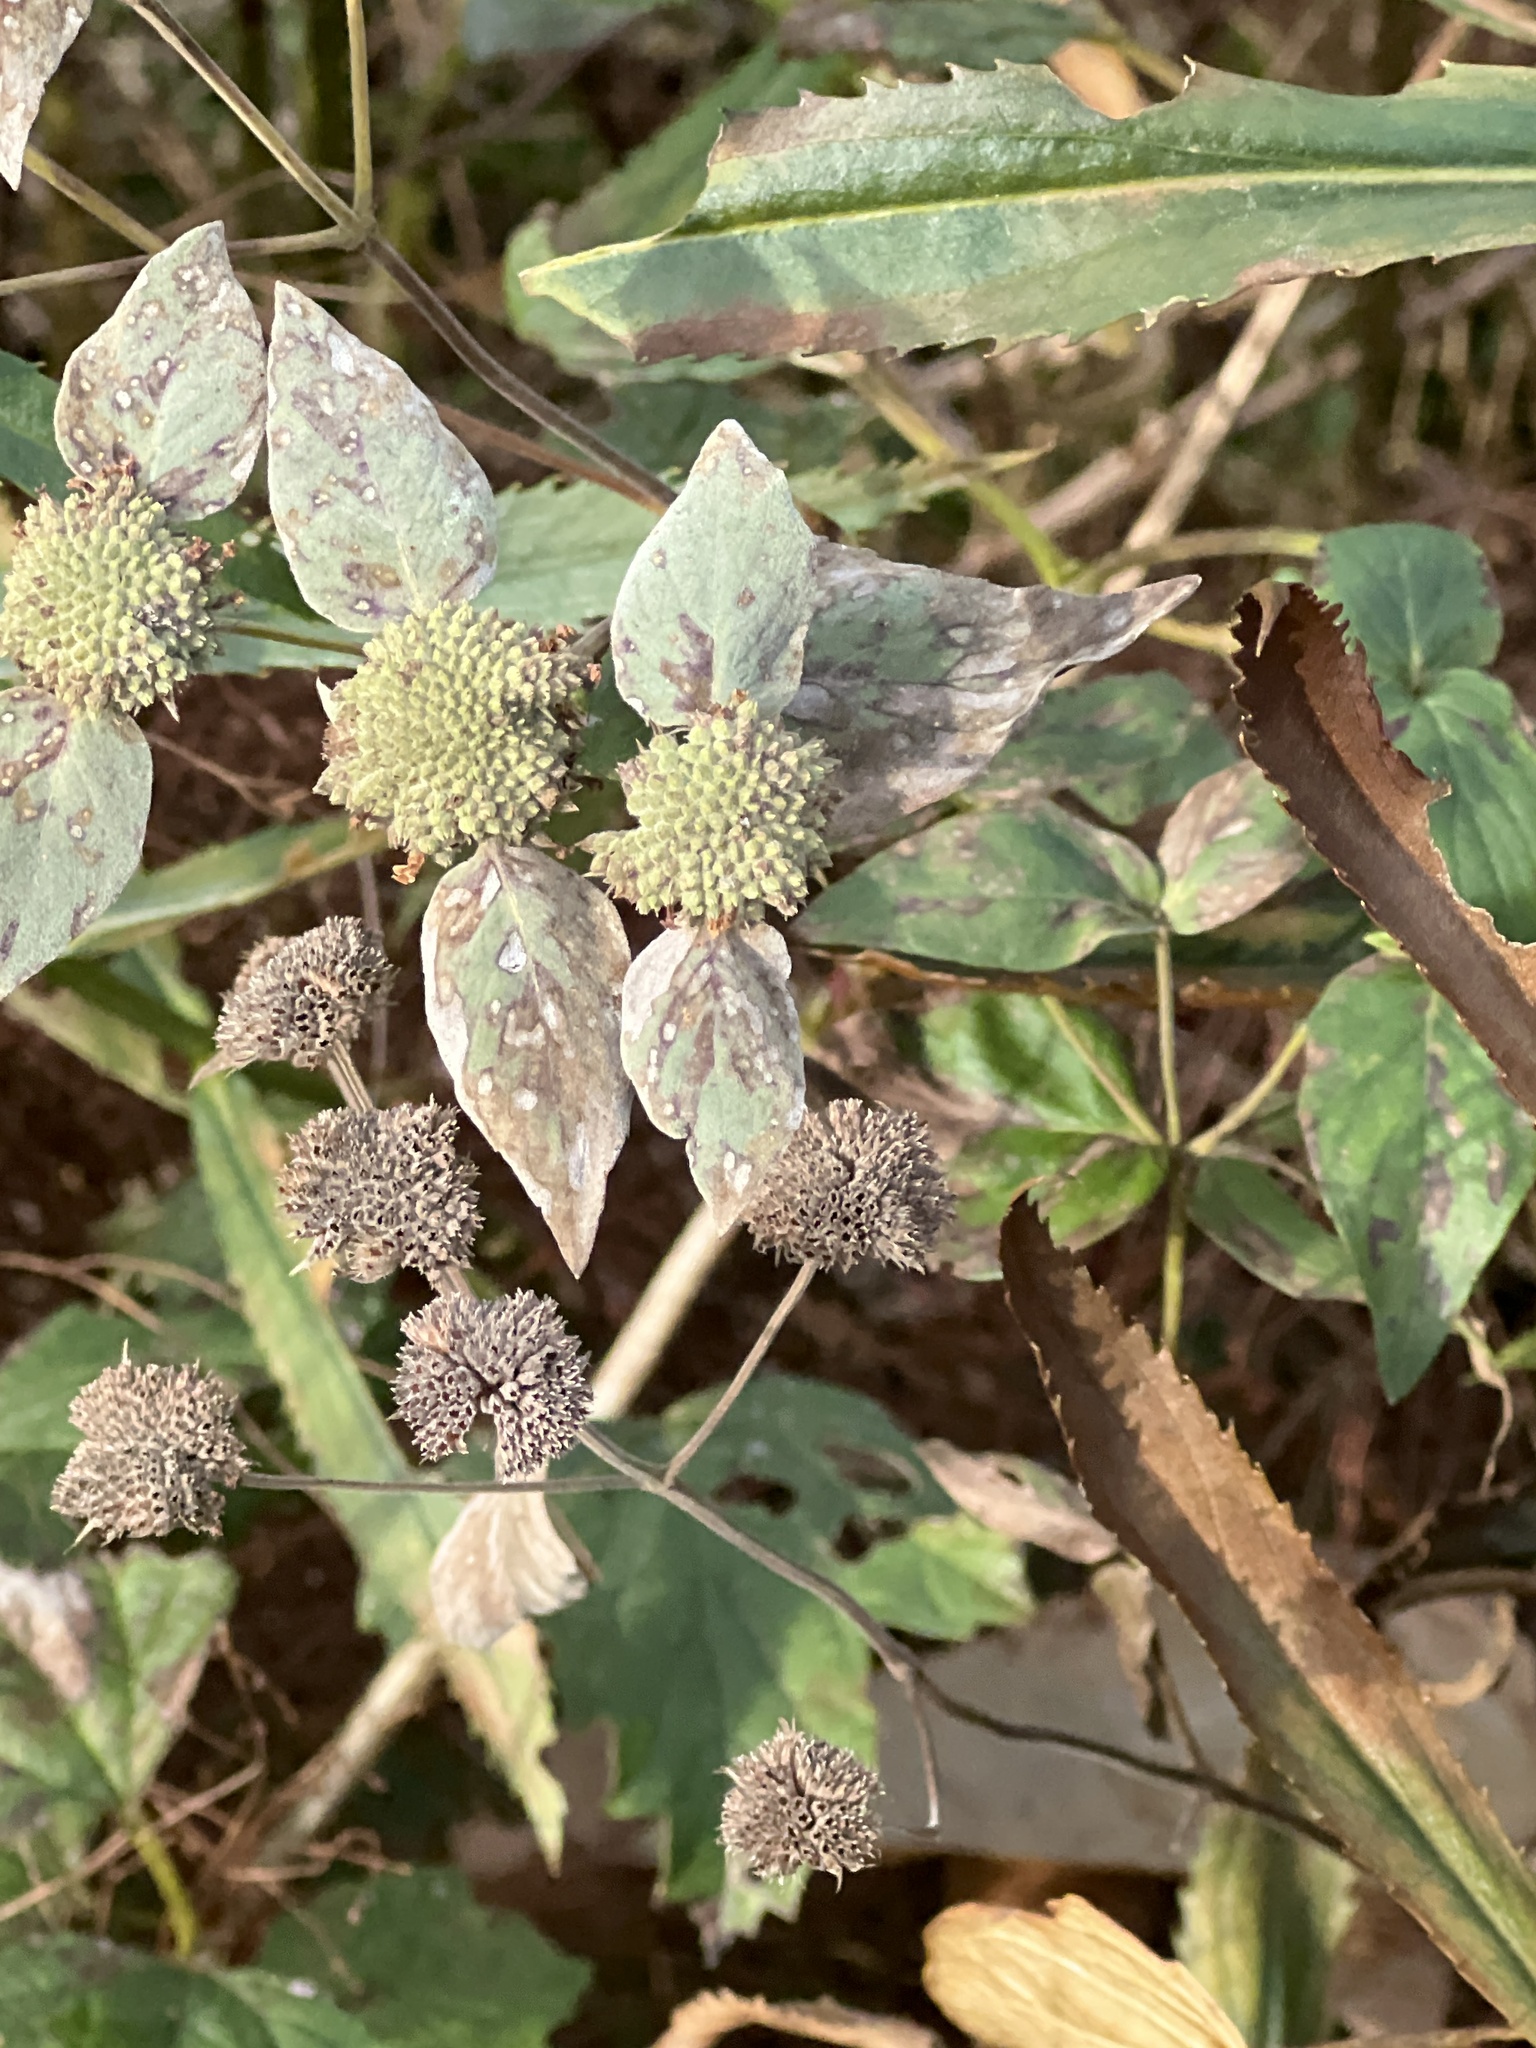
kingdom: Plantae
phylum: Tracheophyta
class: Magnoliopsida
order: Lamiales
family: Lamiaceae
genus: Pycnanthemum
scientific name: Pycnanthemum muticum
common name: Blunt mountain-mint
